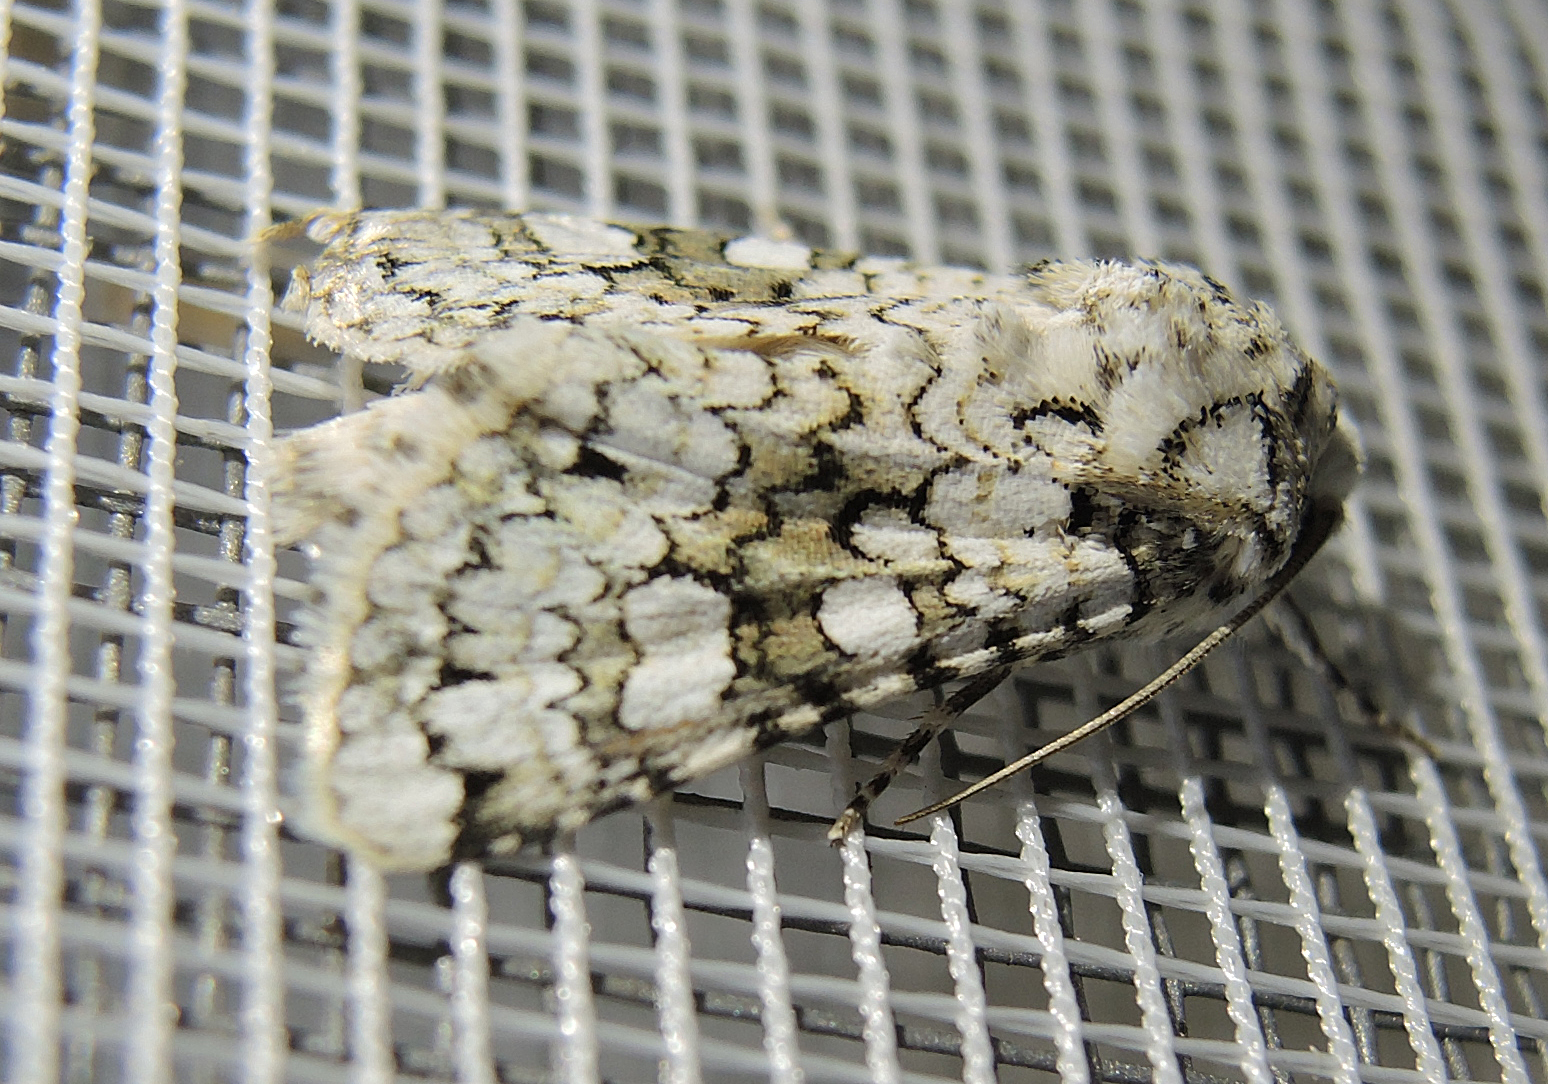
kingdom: Animalia
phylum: Arthropoda
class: Insecta
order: Lepidoptera
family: Noctuidae
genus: Hecatera
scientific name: Hecatera cappa
